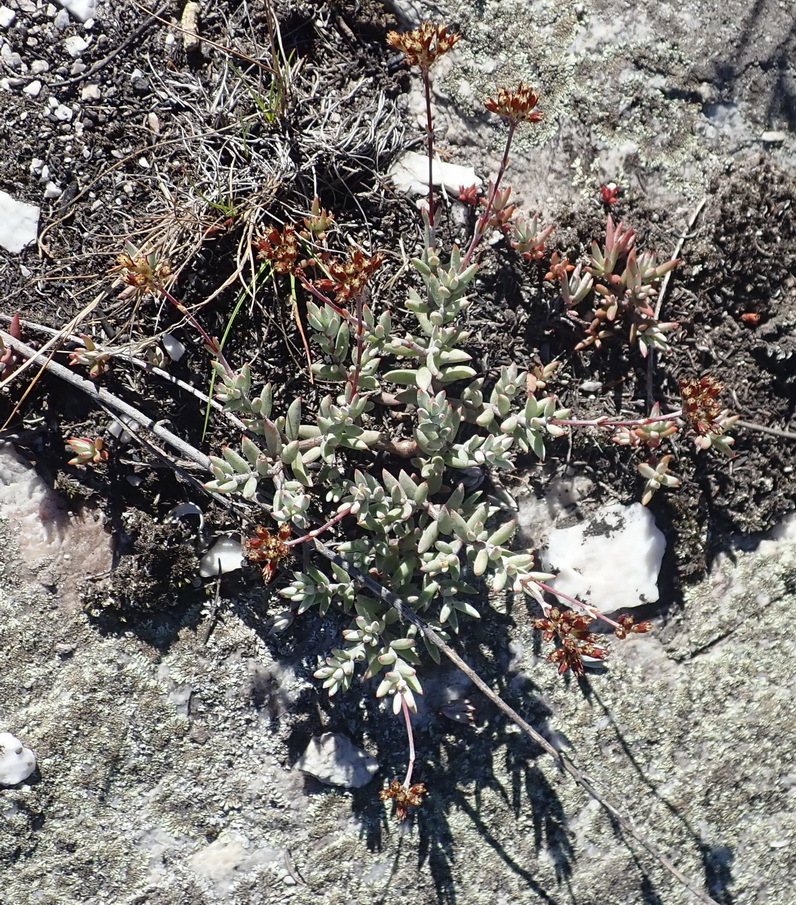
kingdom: Plantae
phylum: Tracheophyta
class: Magnoliopsida
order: Saxifragales
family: Crassulaceae
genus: Crassula
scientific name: Crassula biplanata
